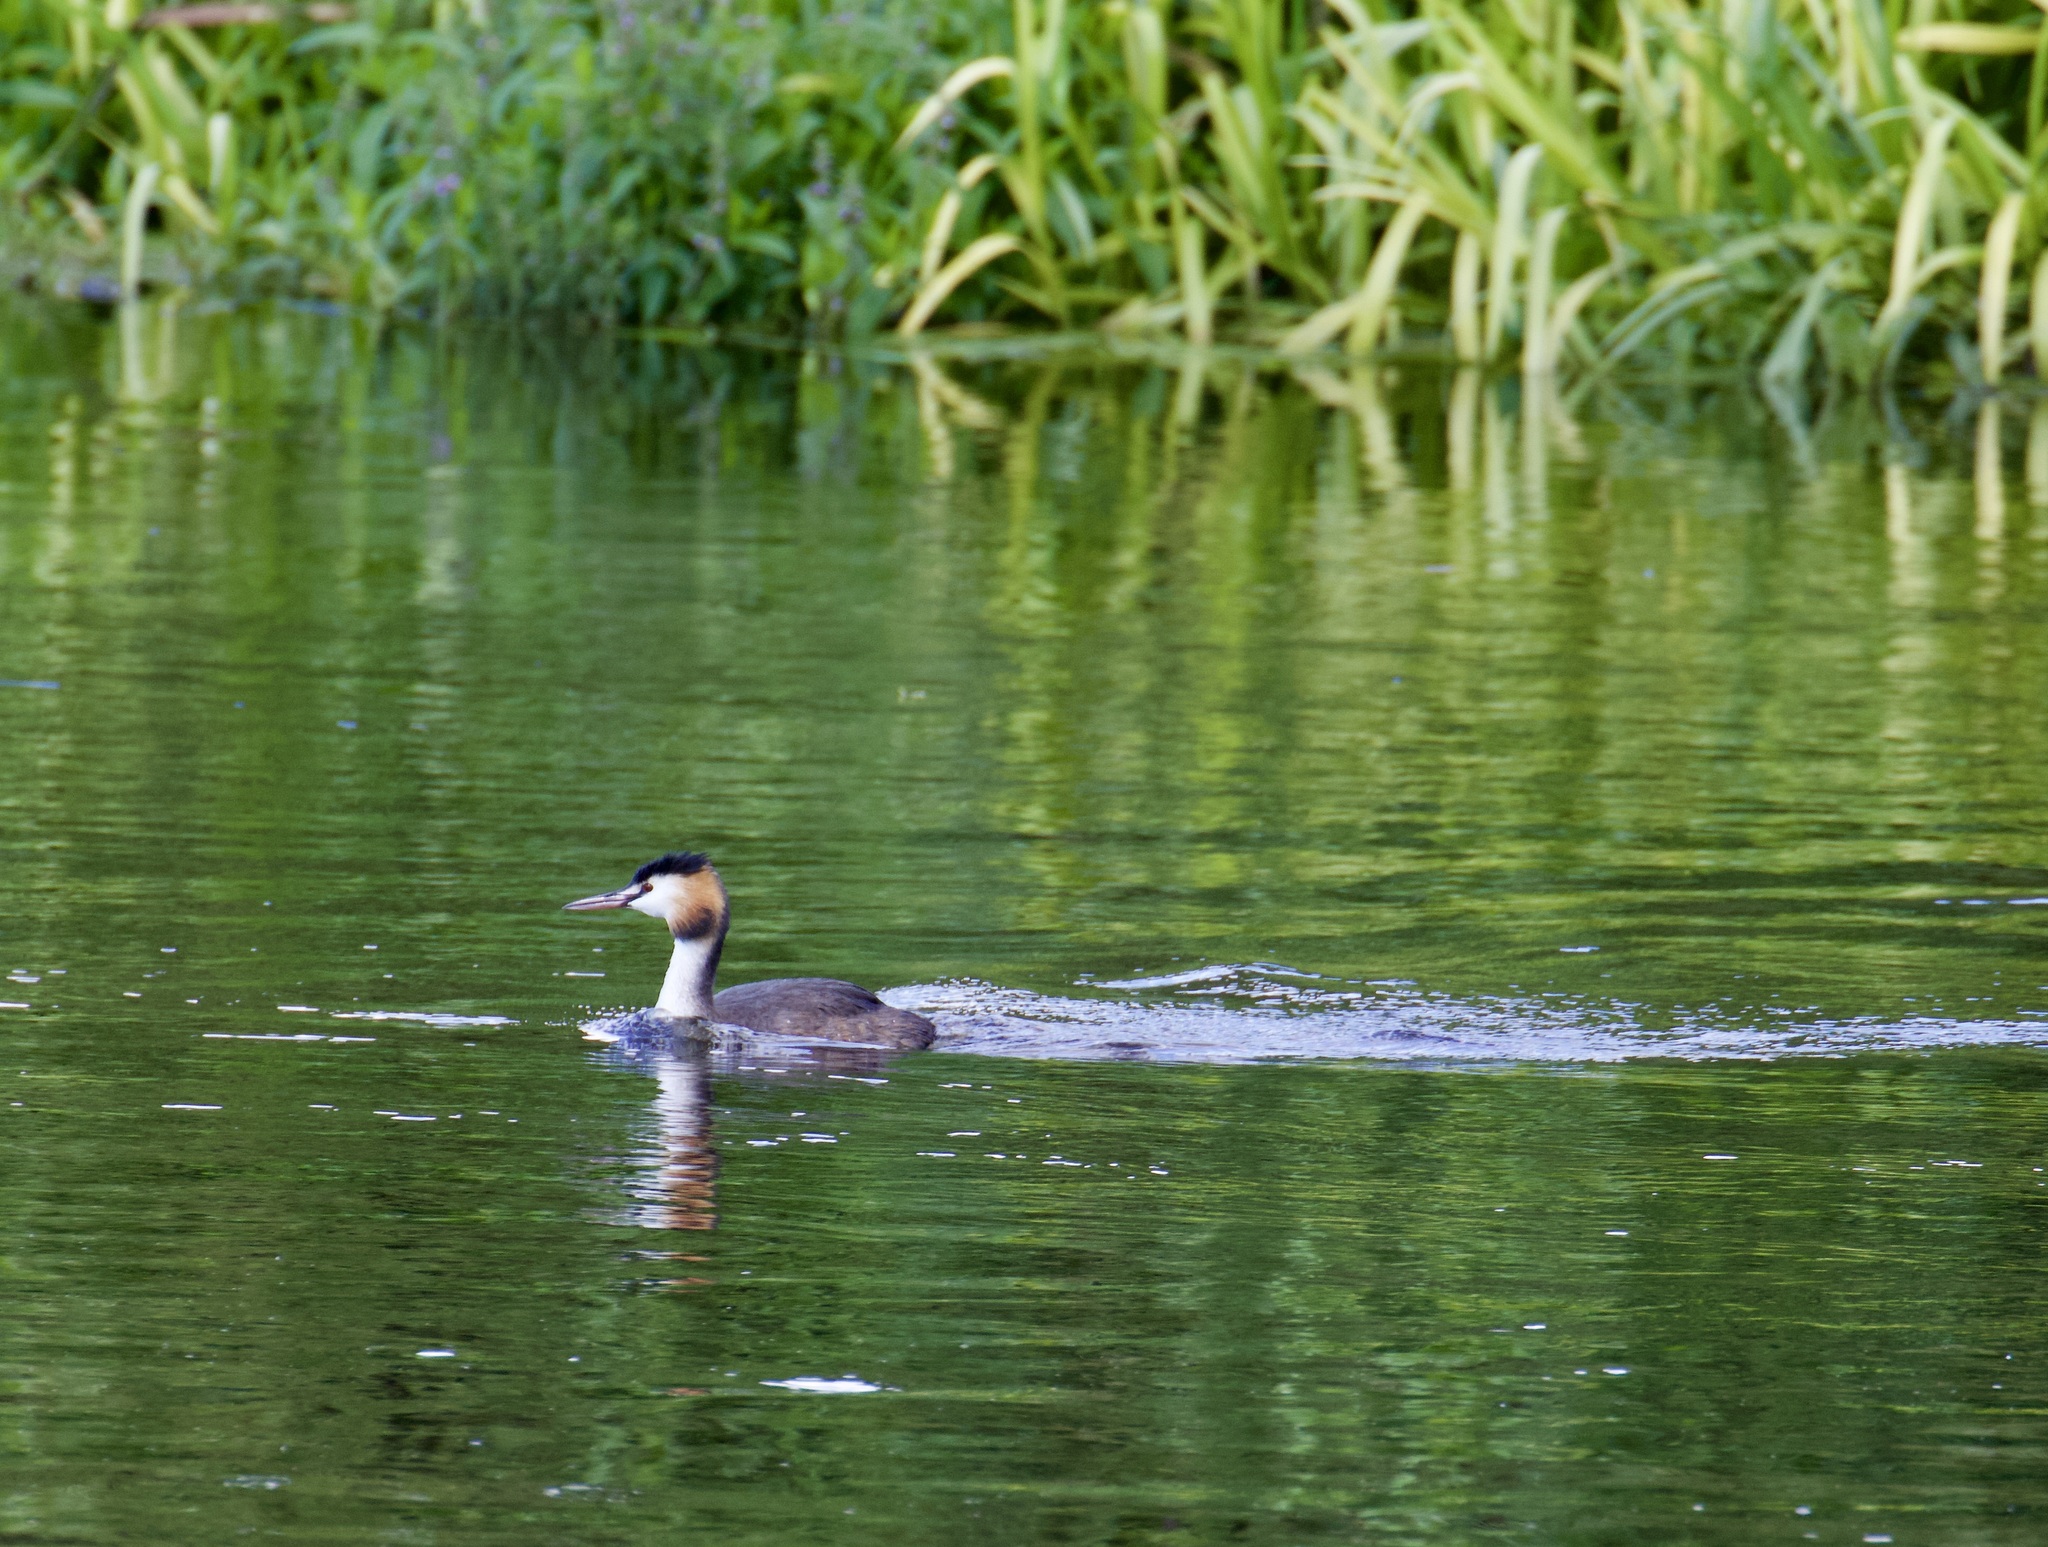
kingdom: Animalia
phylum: Chordata
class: Aves
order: Podicipediformes
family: Podicipedidae
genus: Podiceps
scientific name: Podiceps cristatus
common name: Great crested grebe
